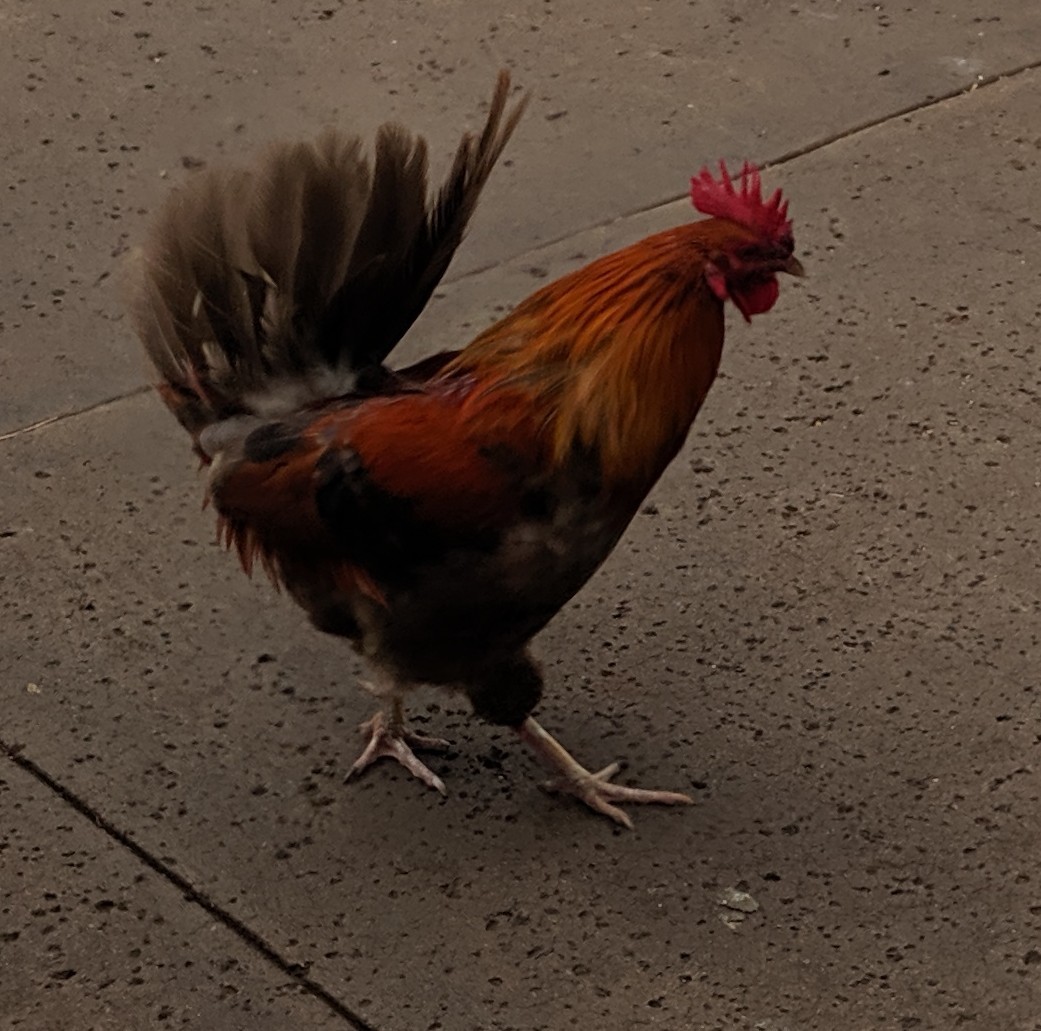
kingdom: Animalia
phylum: Chordata
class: Aves
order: Galliformes
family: Phasianidae
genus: Gallus
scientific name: Gallus gallus
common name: Red junglefowl
